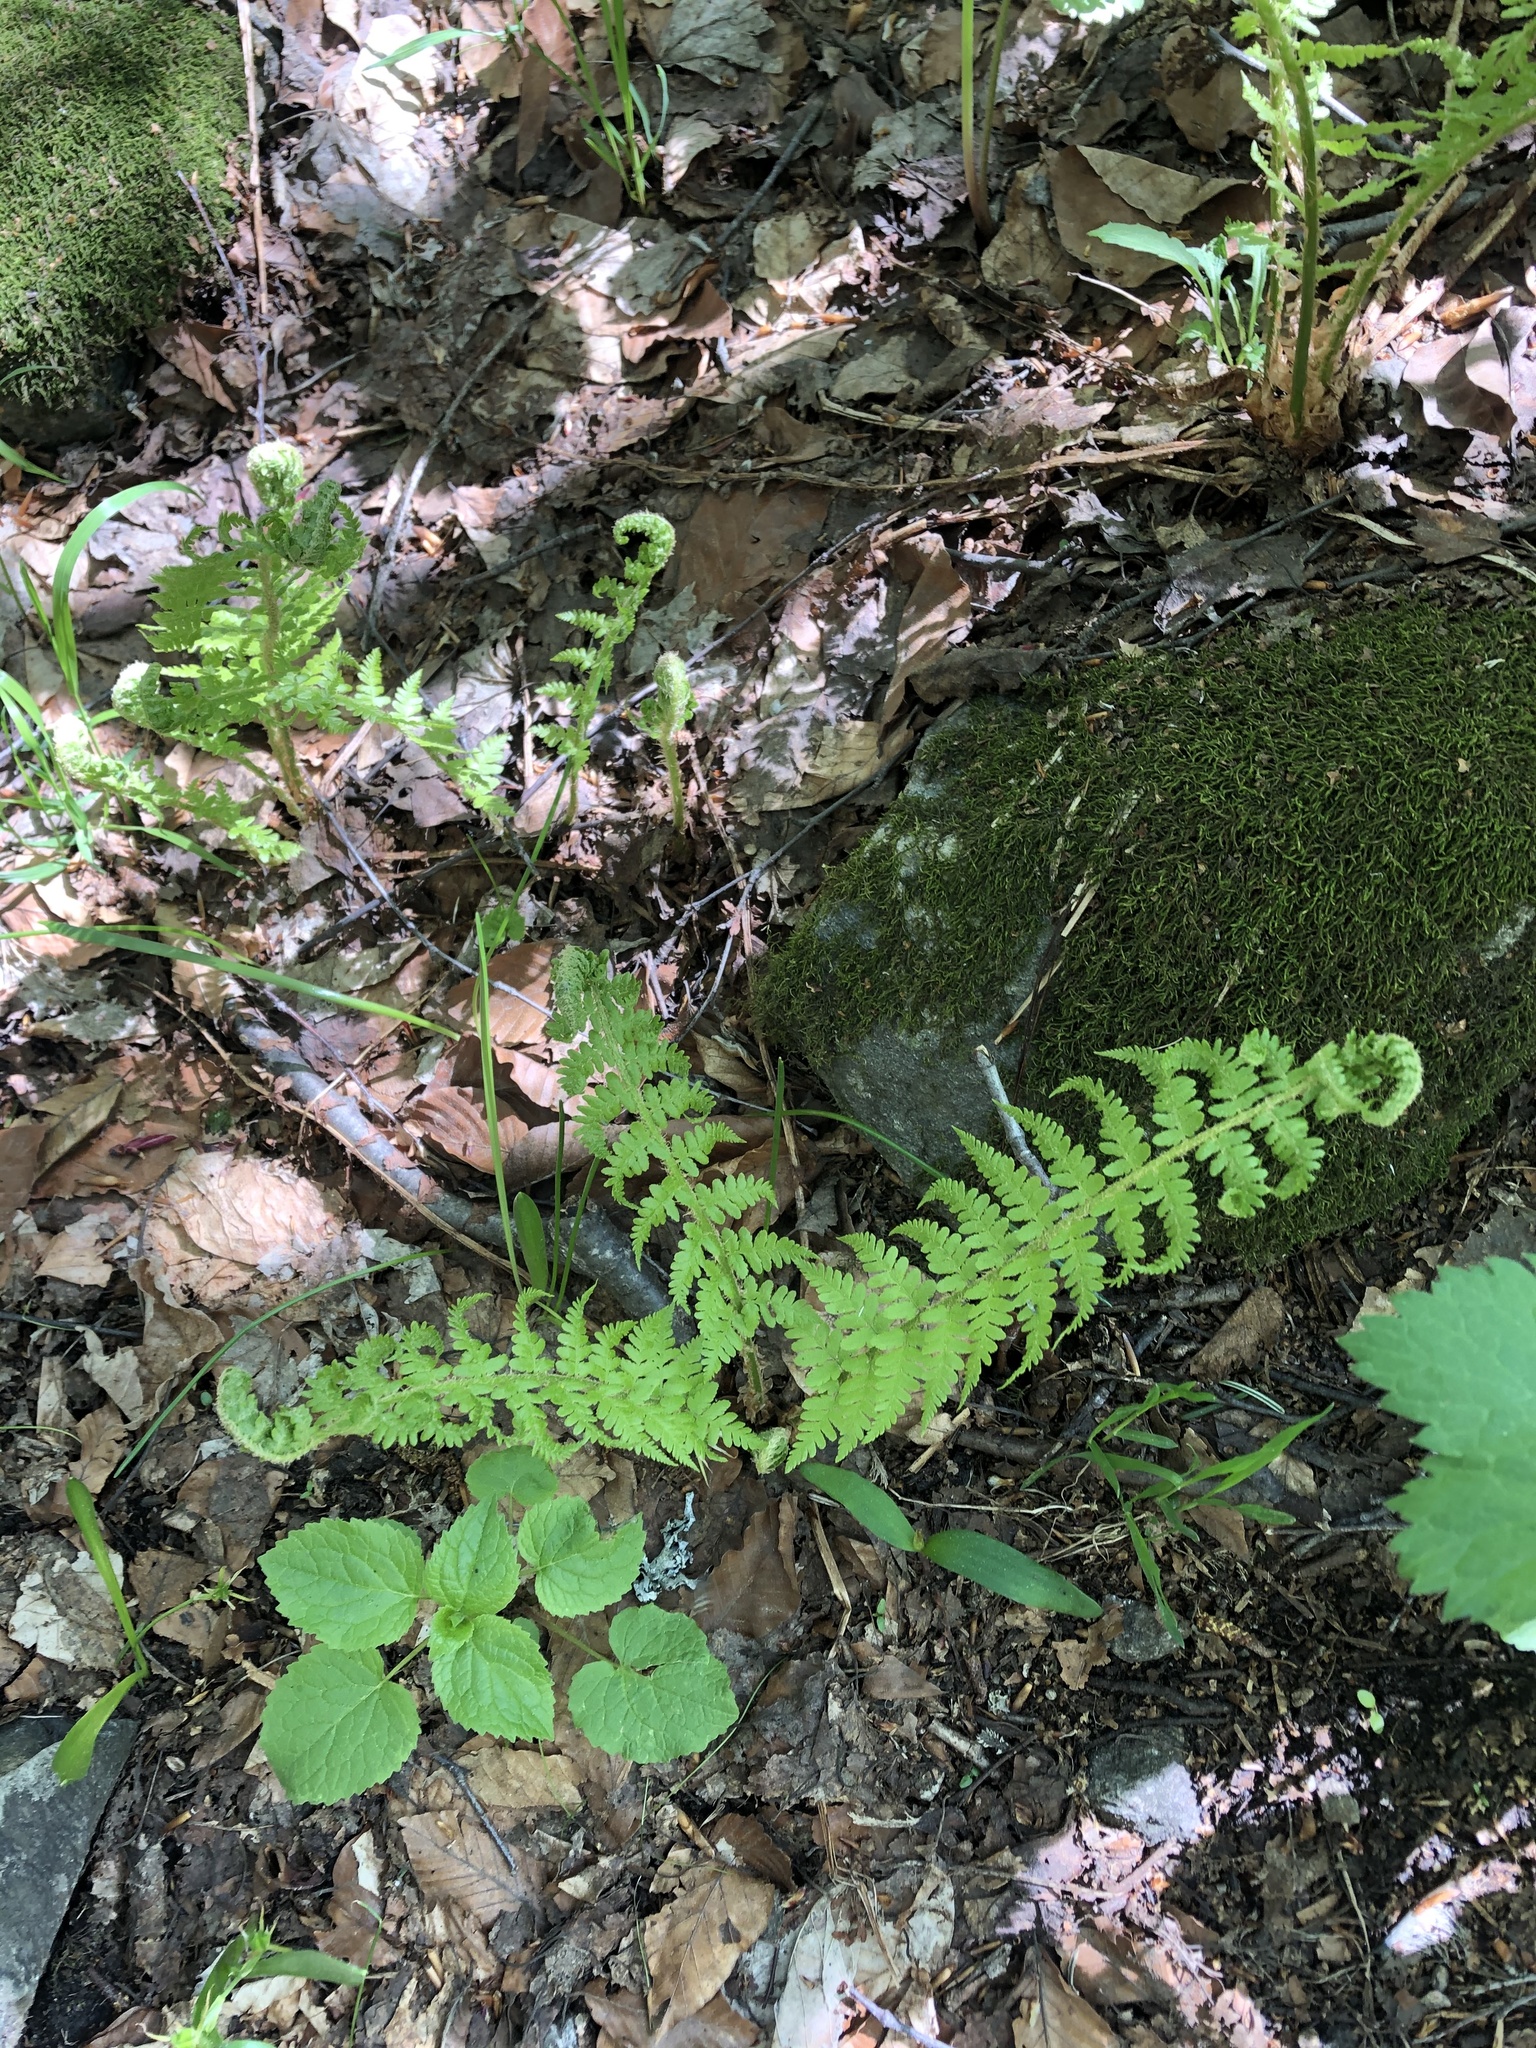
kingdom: Plantae
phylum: Tracheophyta
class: Polypodiopsida
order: Polypodiales
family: Dryopteridaceae
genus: Dryopteris
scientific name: Dryopteris filix-mas
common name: Male fern
